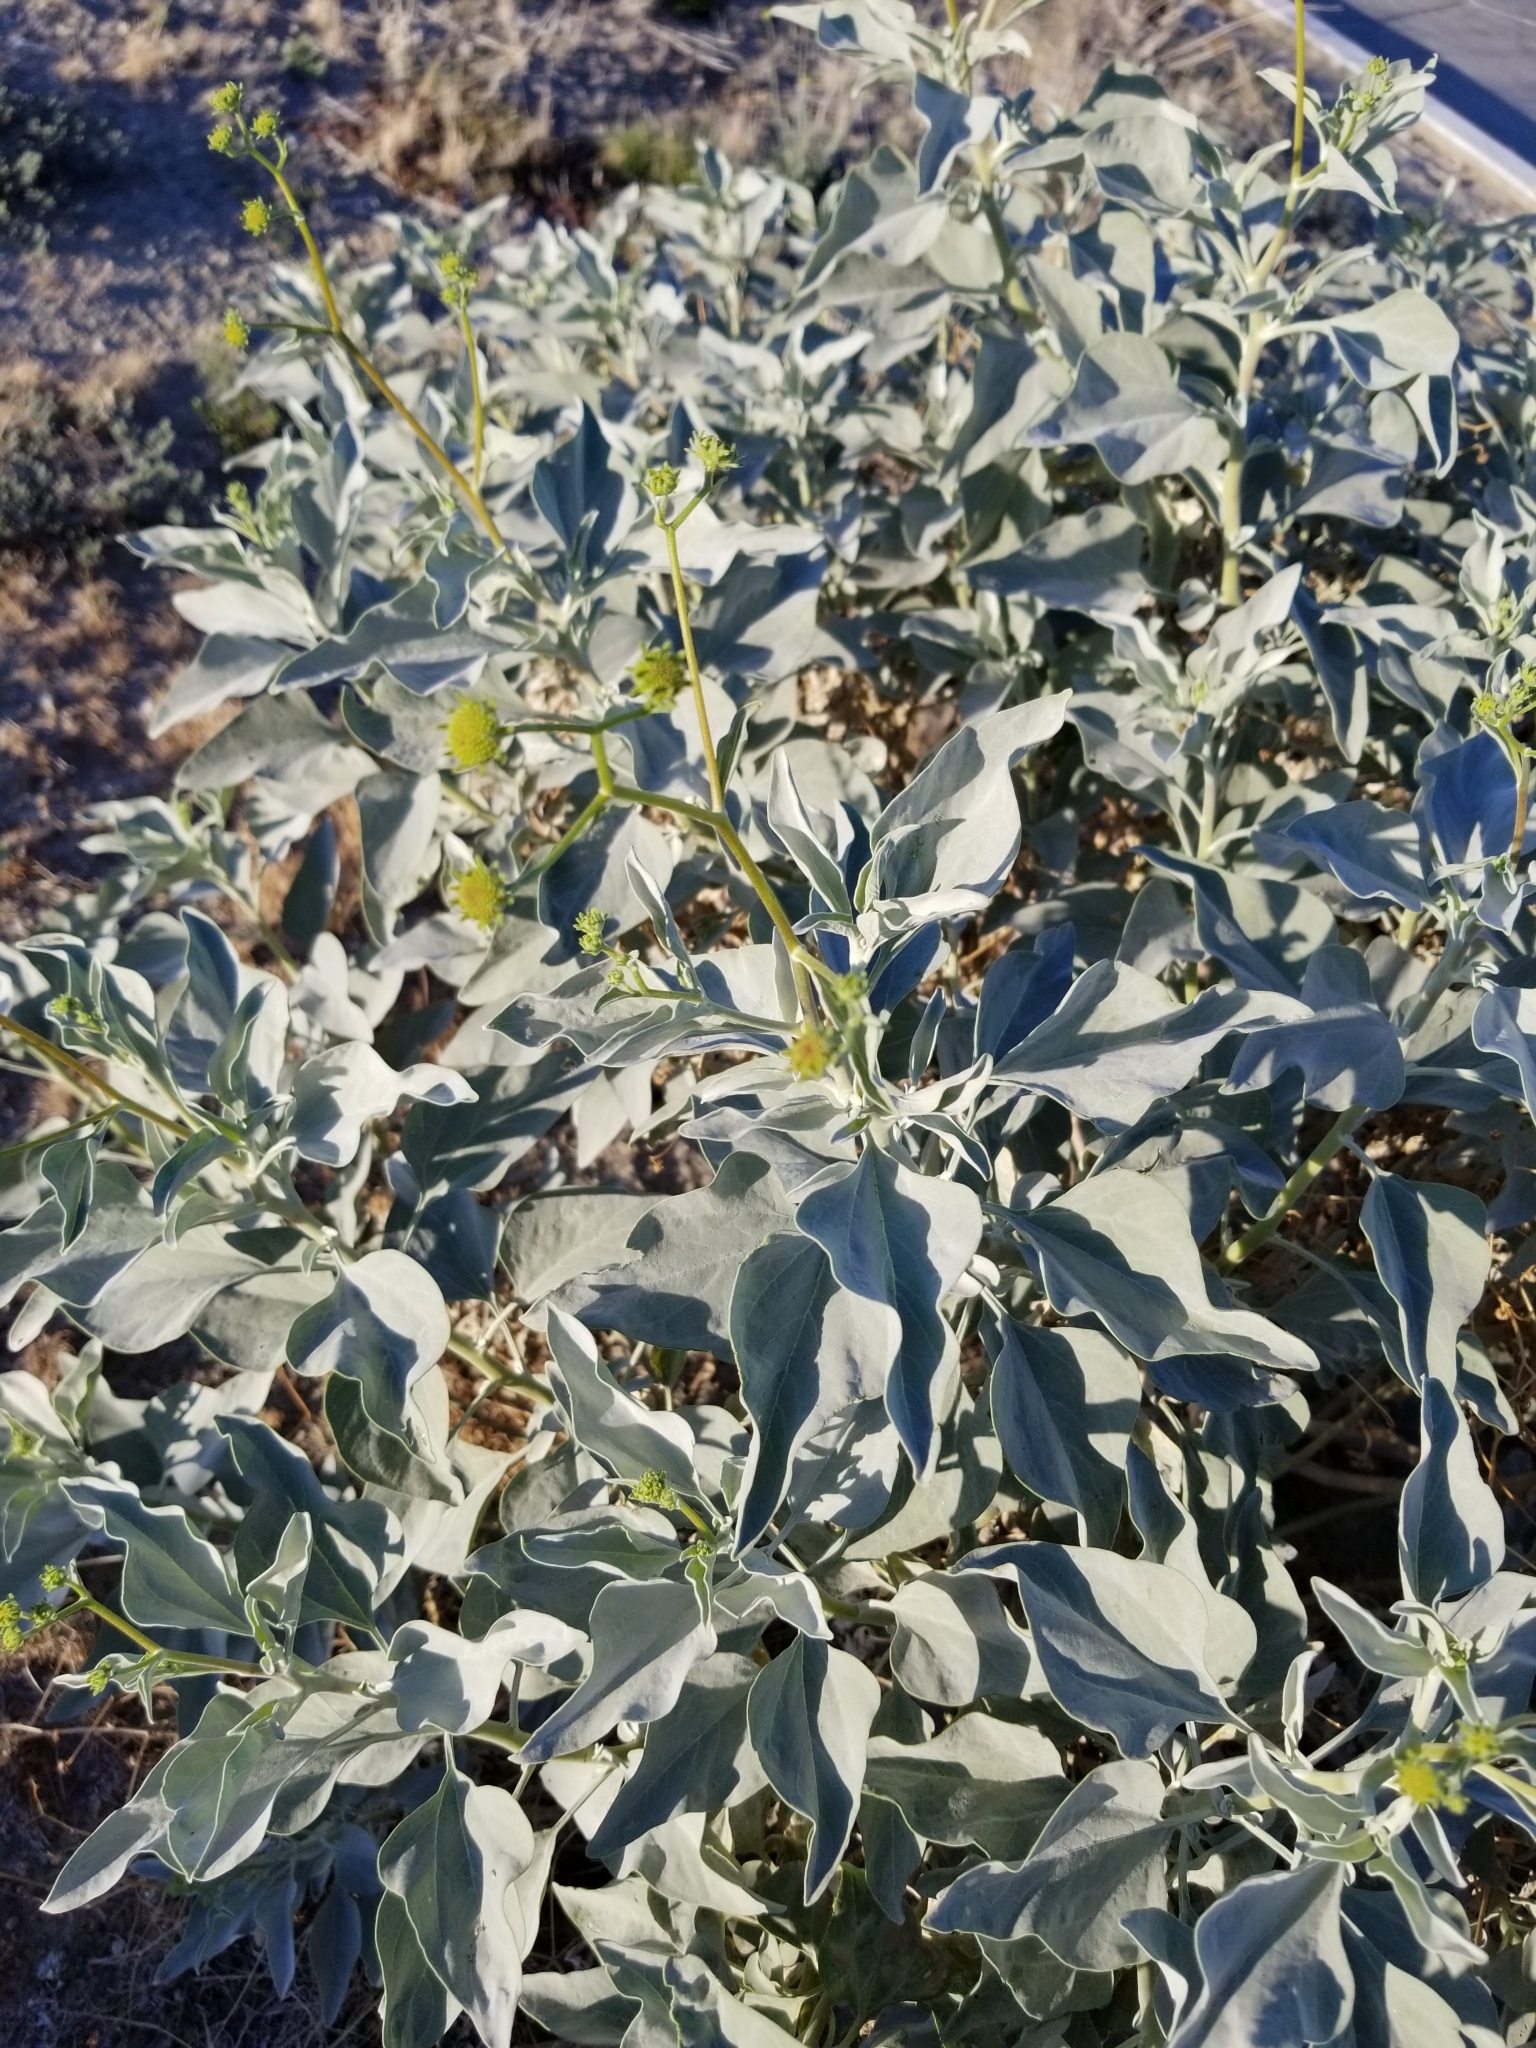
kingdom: Plantae
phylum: Tracheophyta
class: Magnoliopsida
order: Asterales
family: Asteraceae
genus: Encelia
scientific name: Encelia farinosa
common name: Brittlebush
